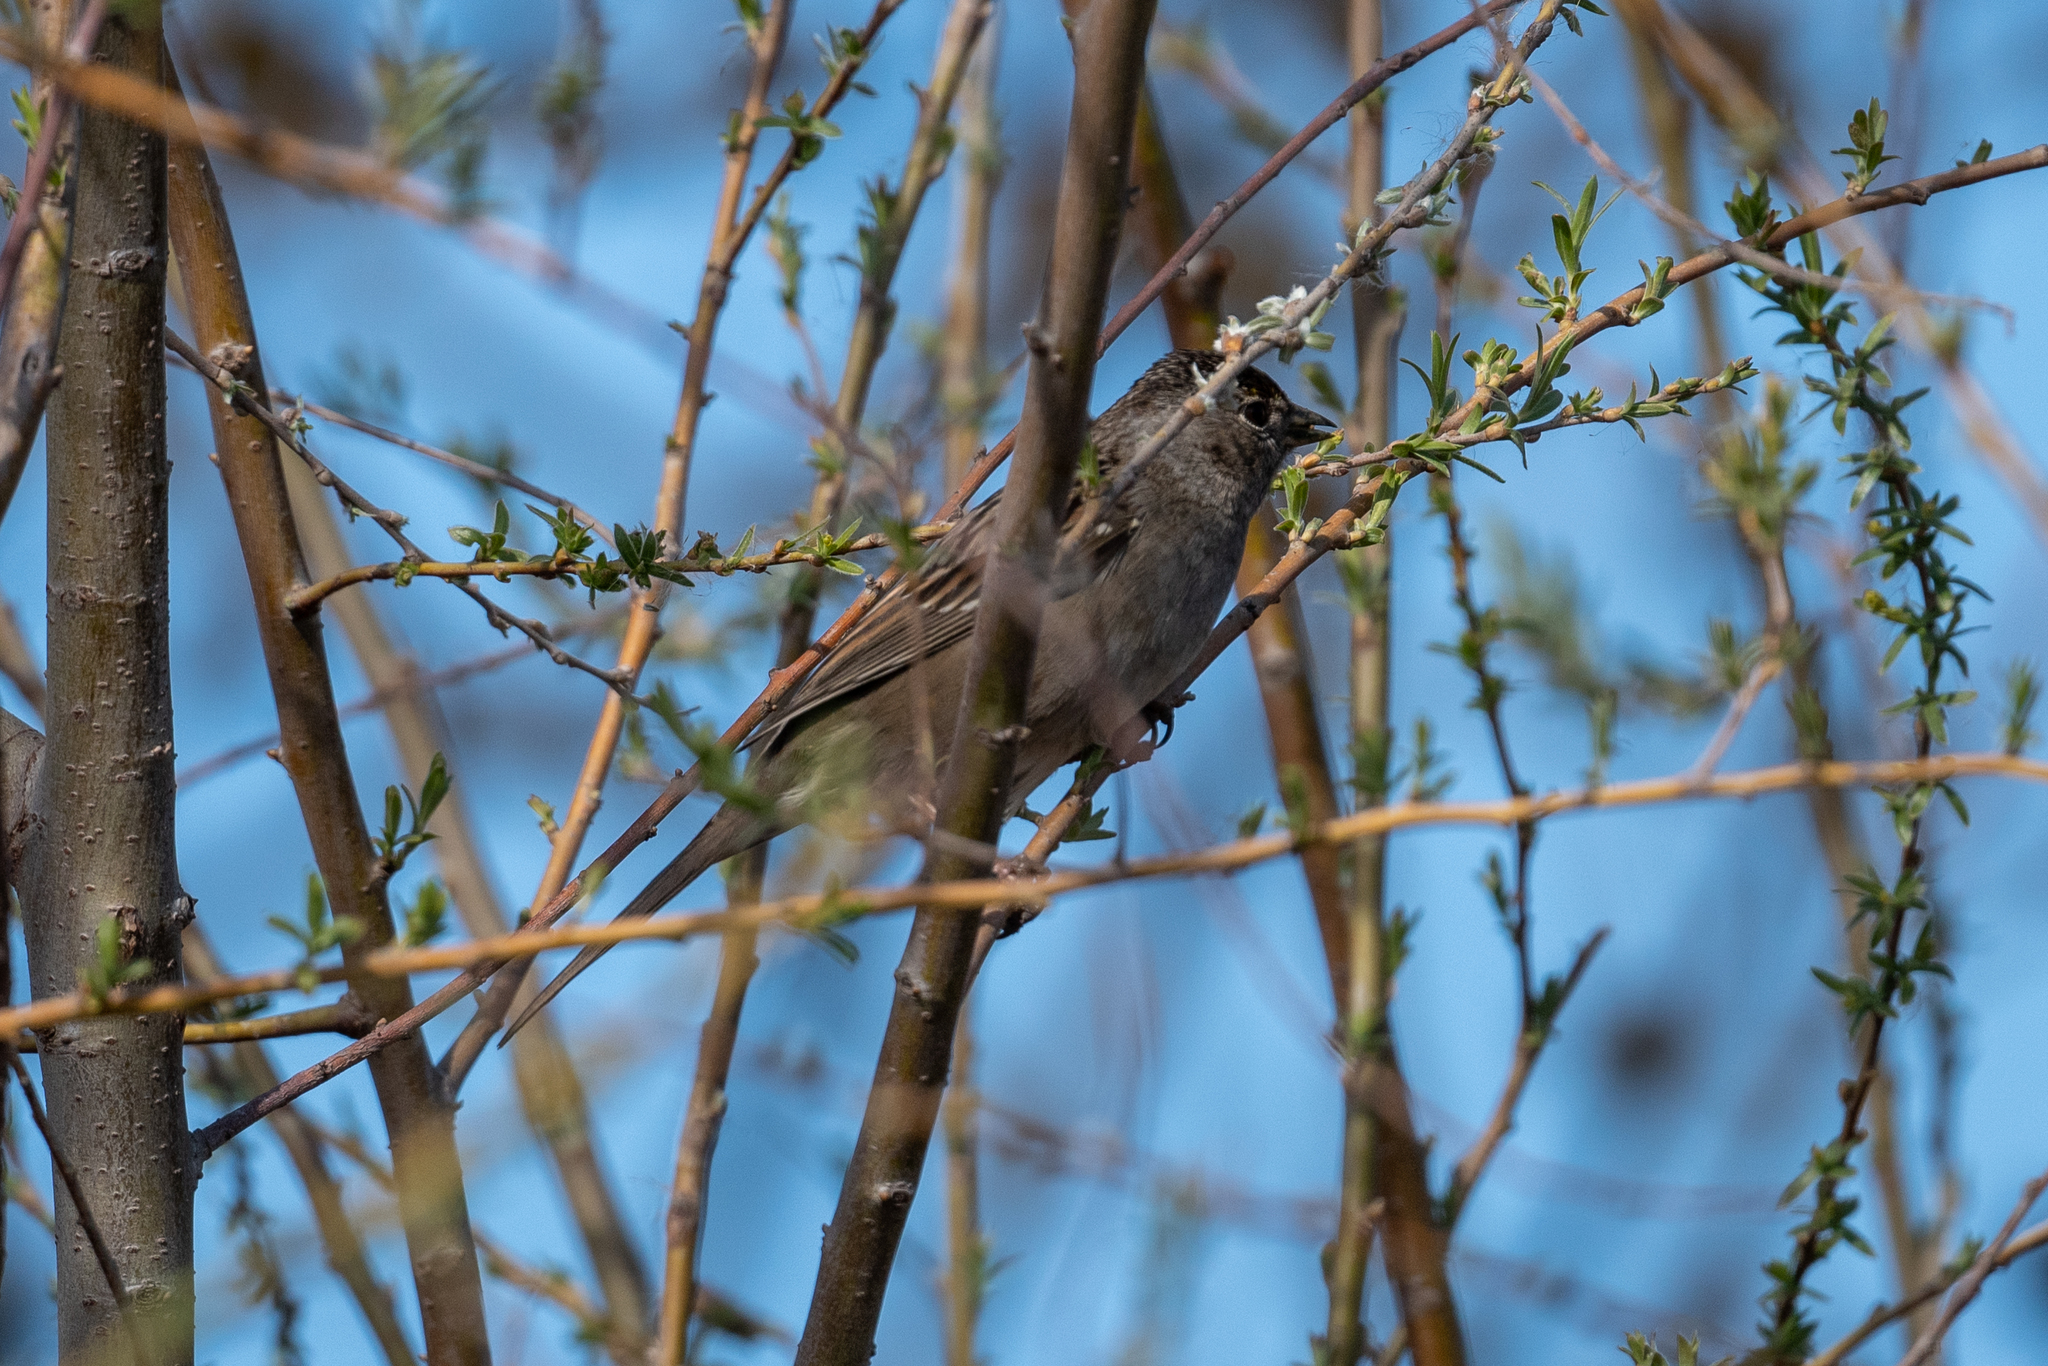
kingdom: Animalia
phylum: Chordata
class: Aves
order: Passeriformes
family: Passerellidae
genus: Zonotrichia
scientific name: Zonotrichia atricapilla
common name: Golden-crowned sparrow
